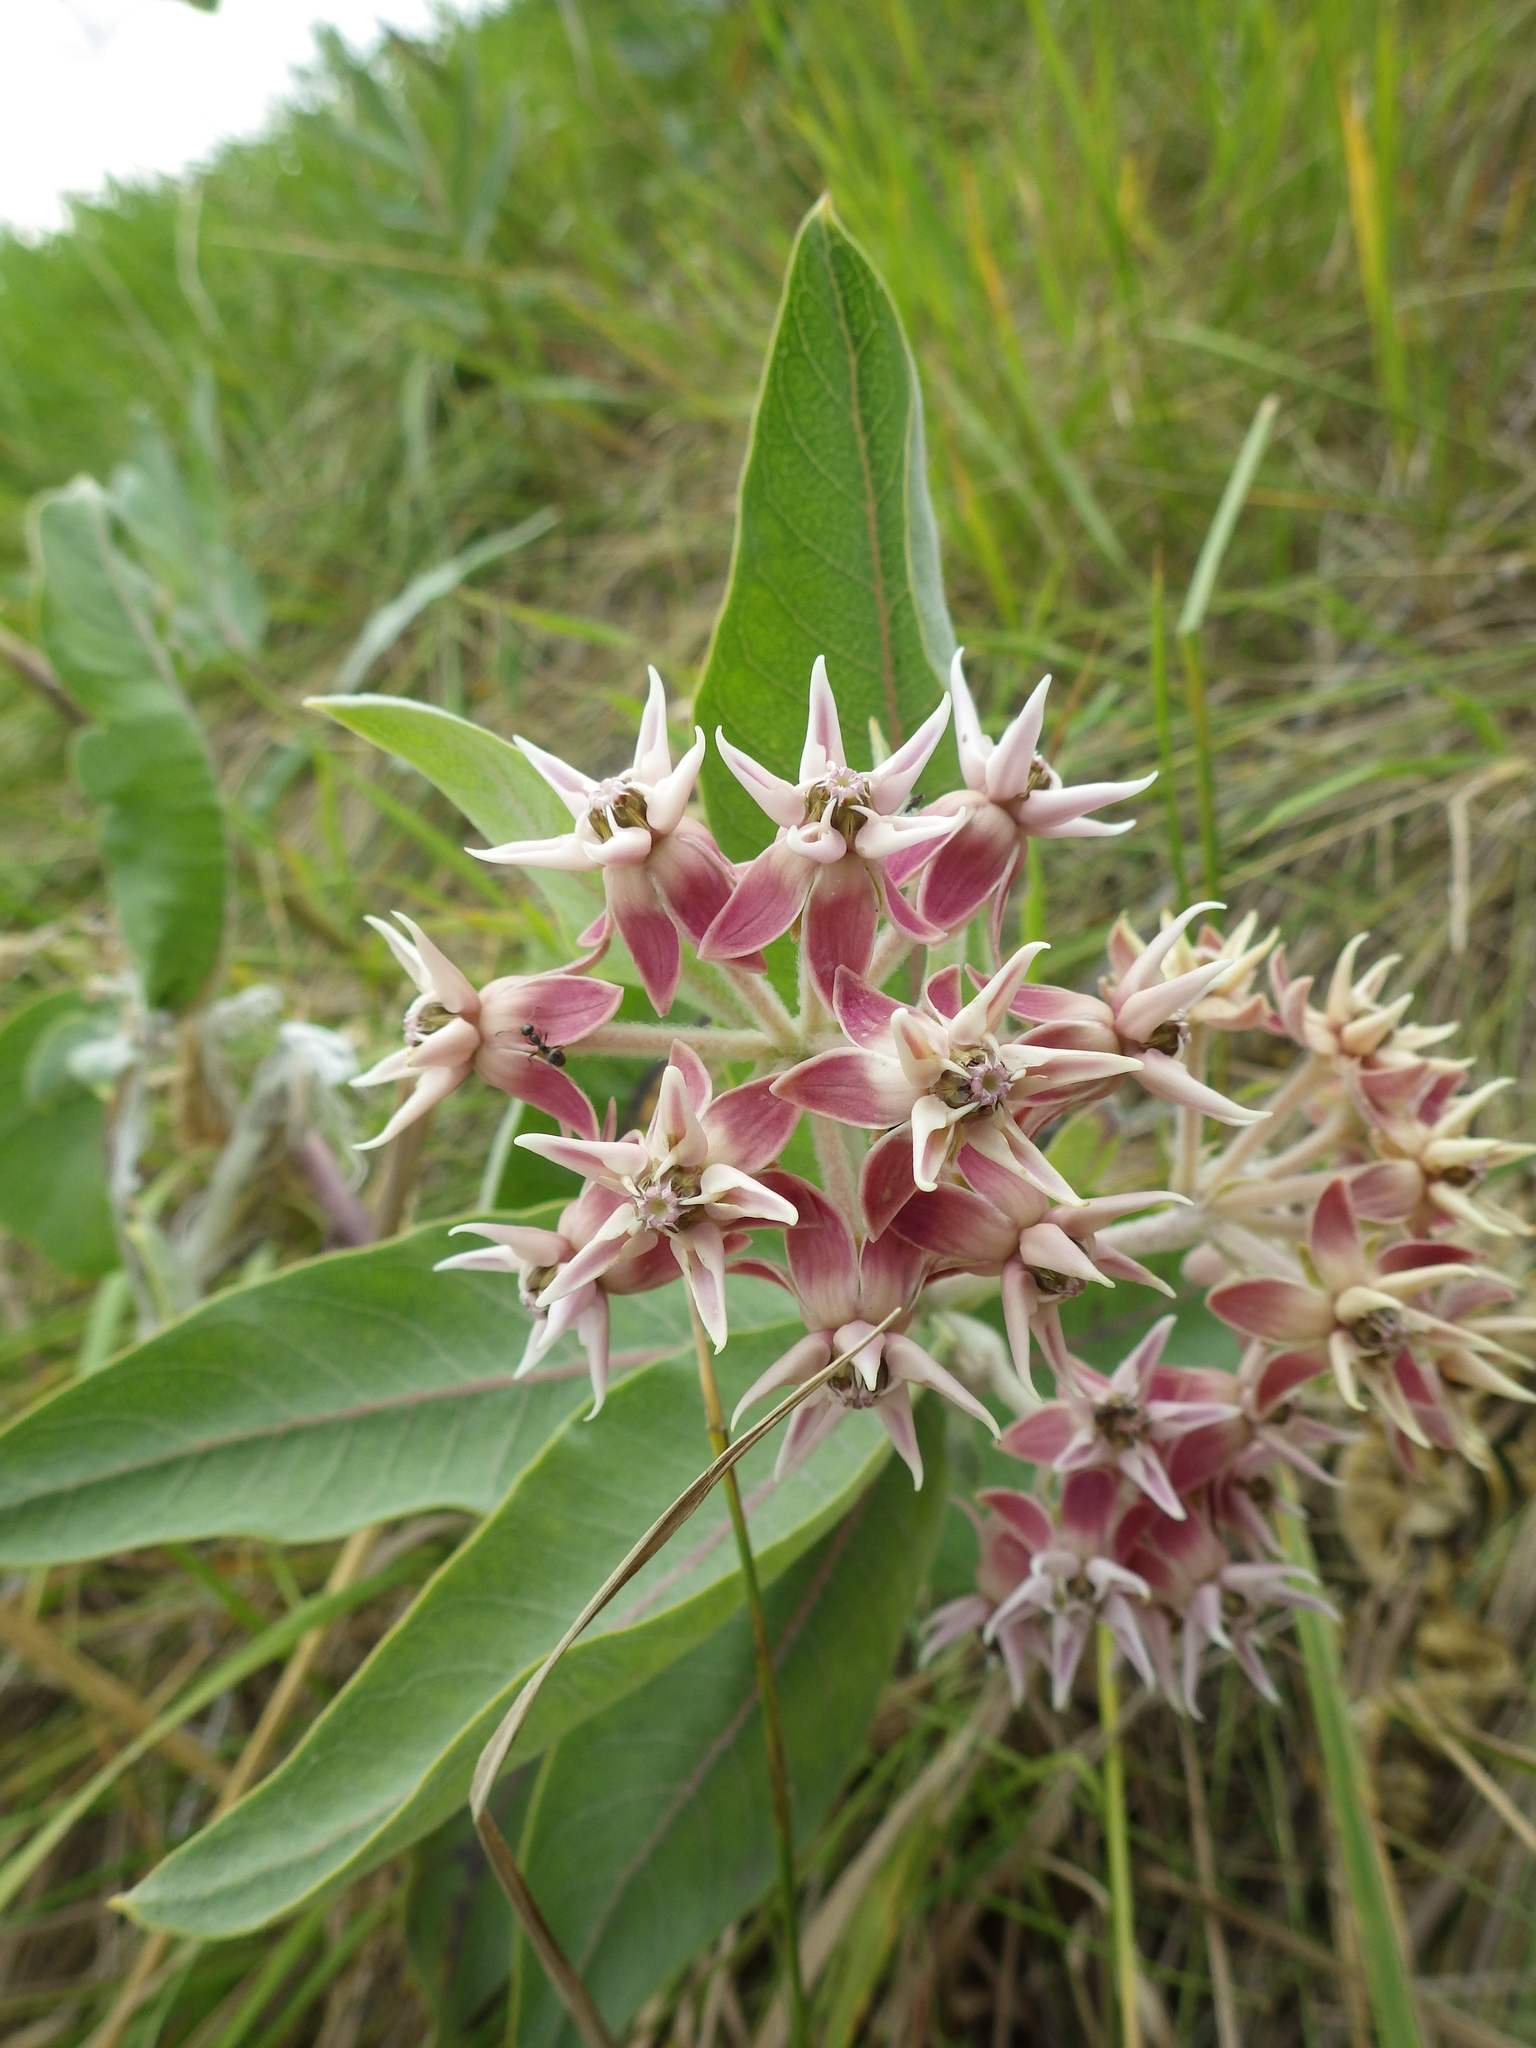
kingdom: Plantae
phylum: Tracheophyta
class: Magnoliopsida
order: Gentianales
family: Apocynaceae
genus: Asclepias
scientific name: Asclepias speciosa
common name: Showy milkweed
